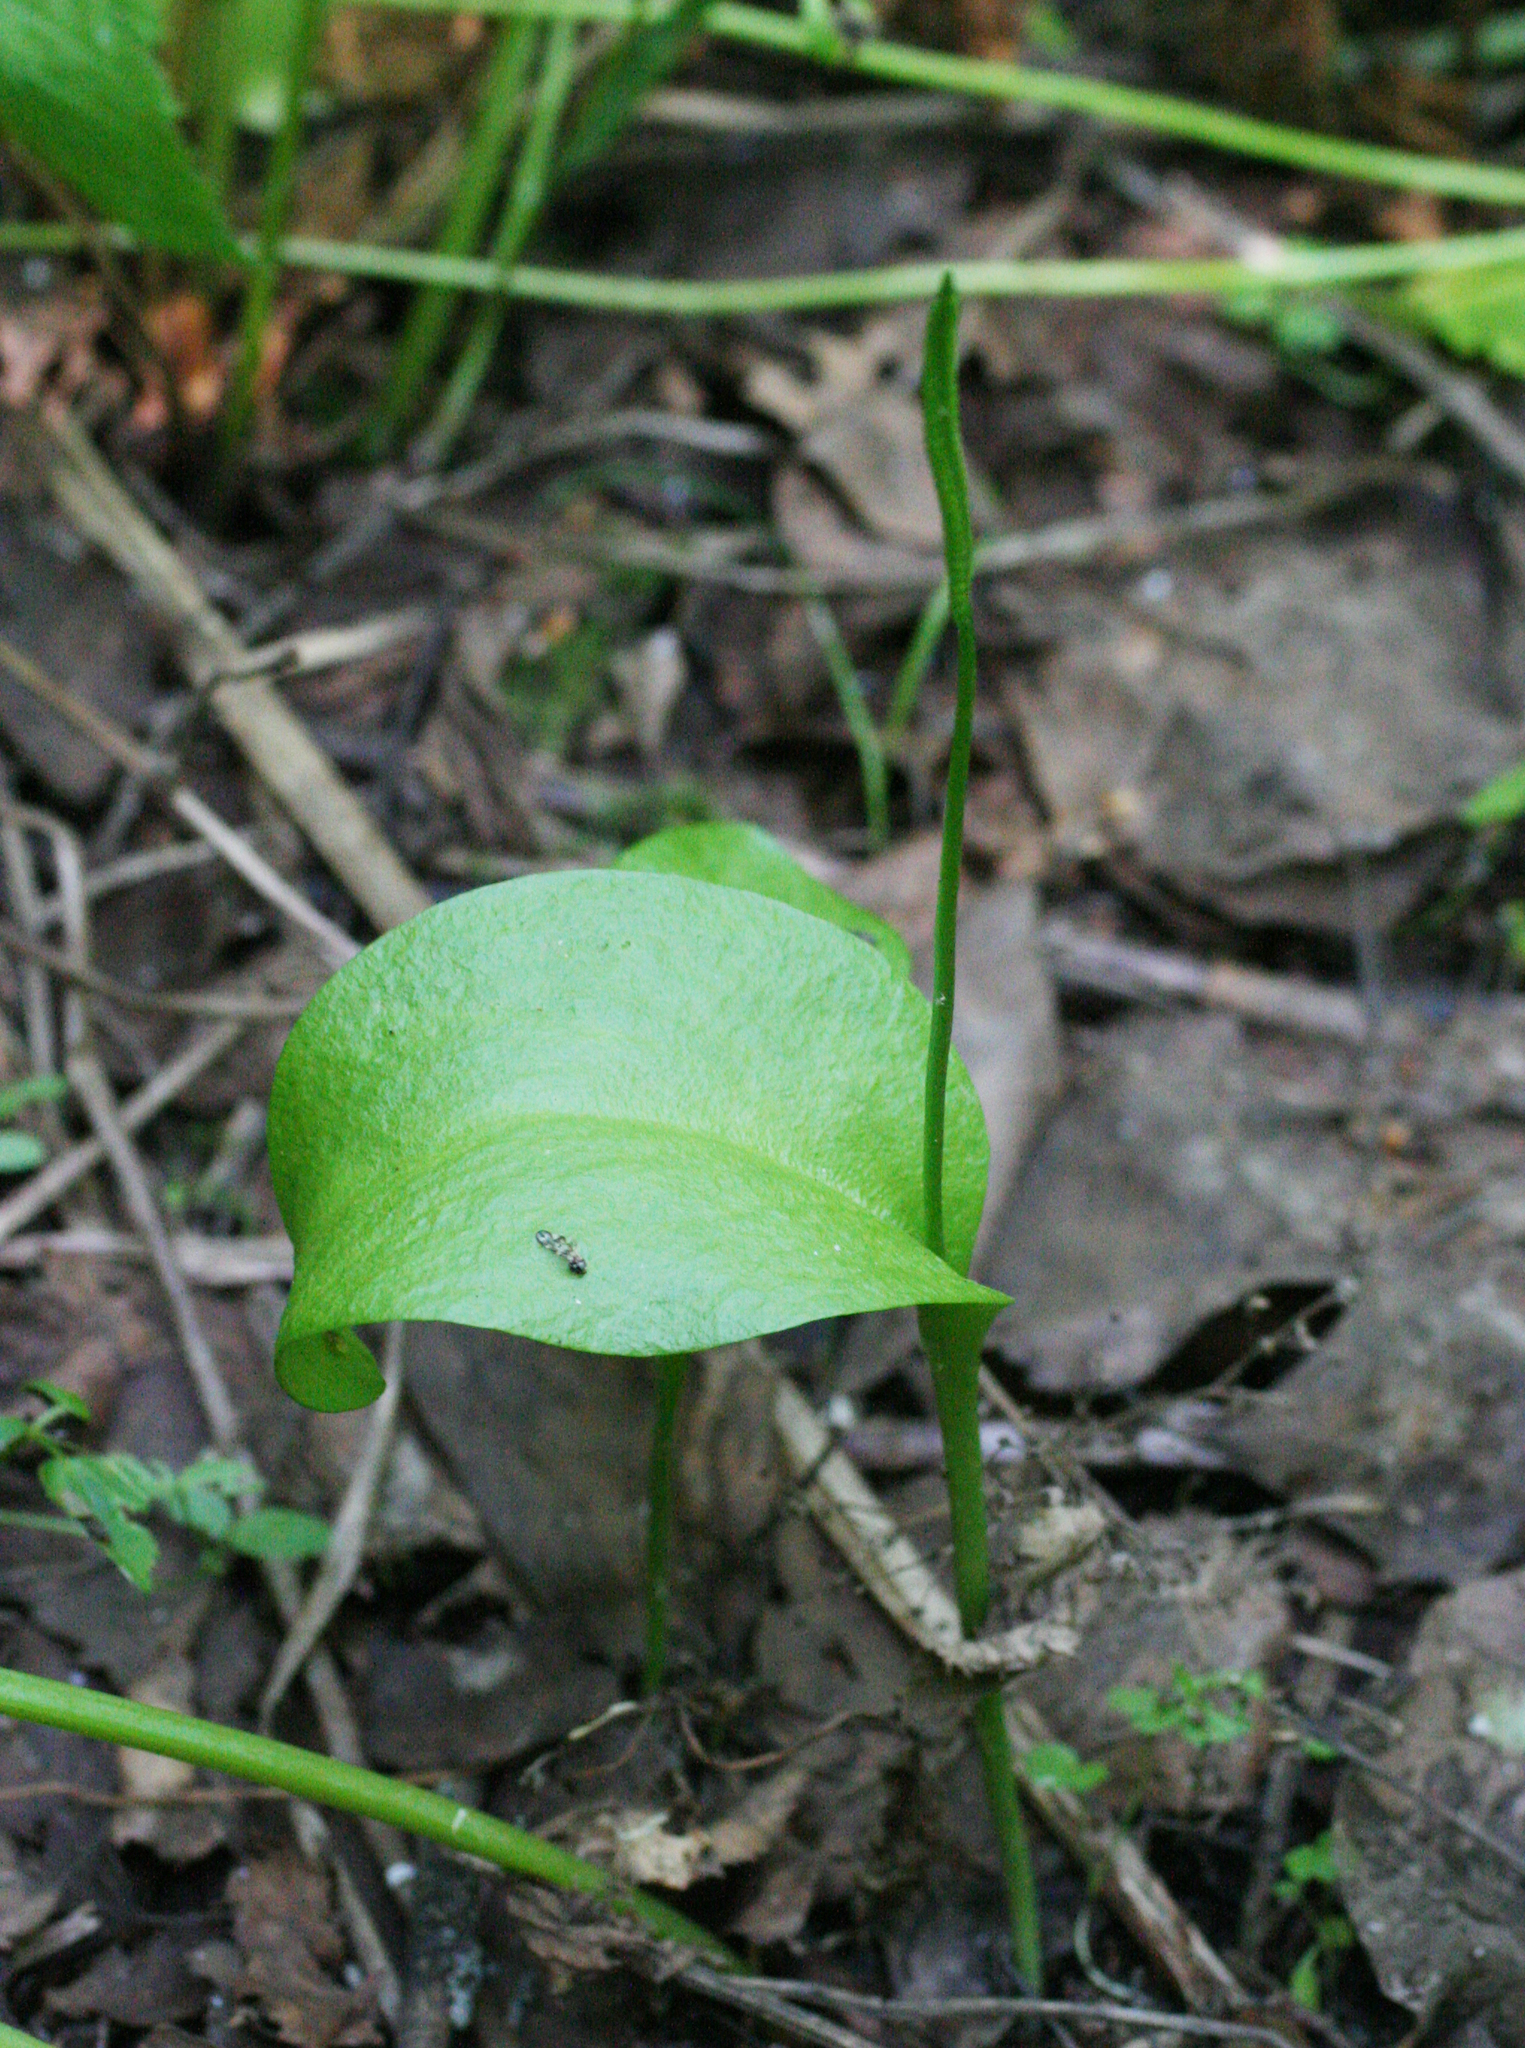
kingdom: Plantae
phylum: Tracheophyta
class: Polypodiopsida
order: Ophioglossales
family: Ophioglossaceae
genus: Ophioglossum
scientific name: Ophioglossum vulgatum
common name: Adder's-tongue
